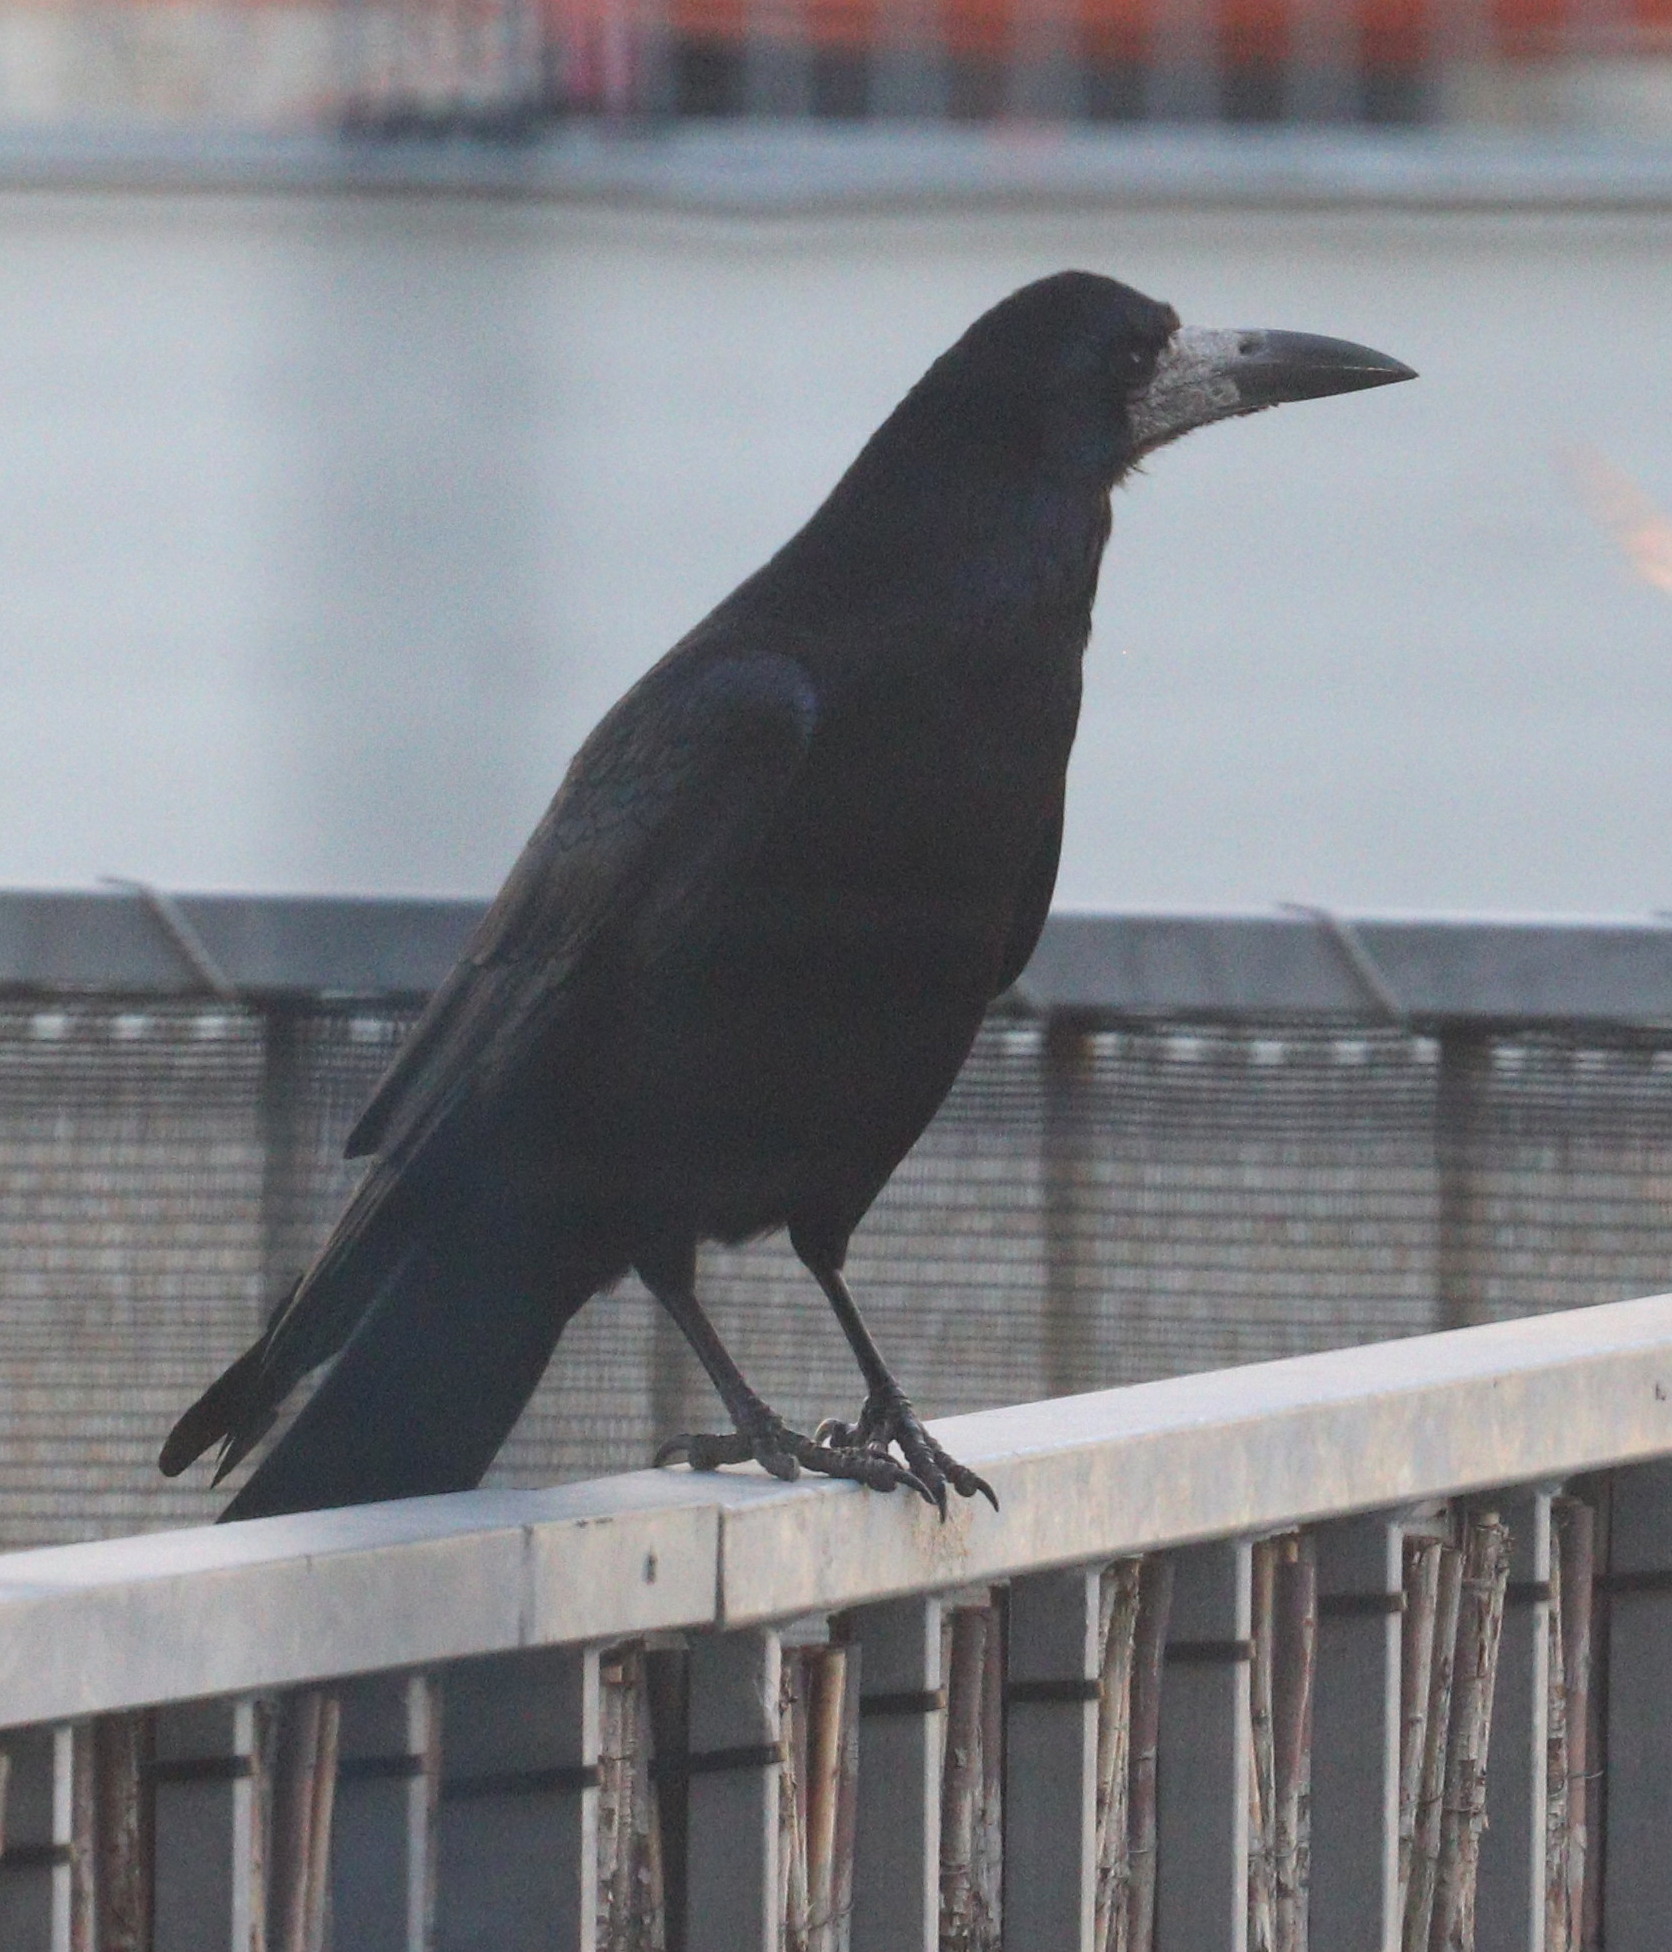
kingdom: Animalia
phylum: Chordata
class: Aves
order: Passeriformes
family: Corvidae
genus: Corvus
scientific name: Corvus frugilegus
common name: Rook
